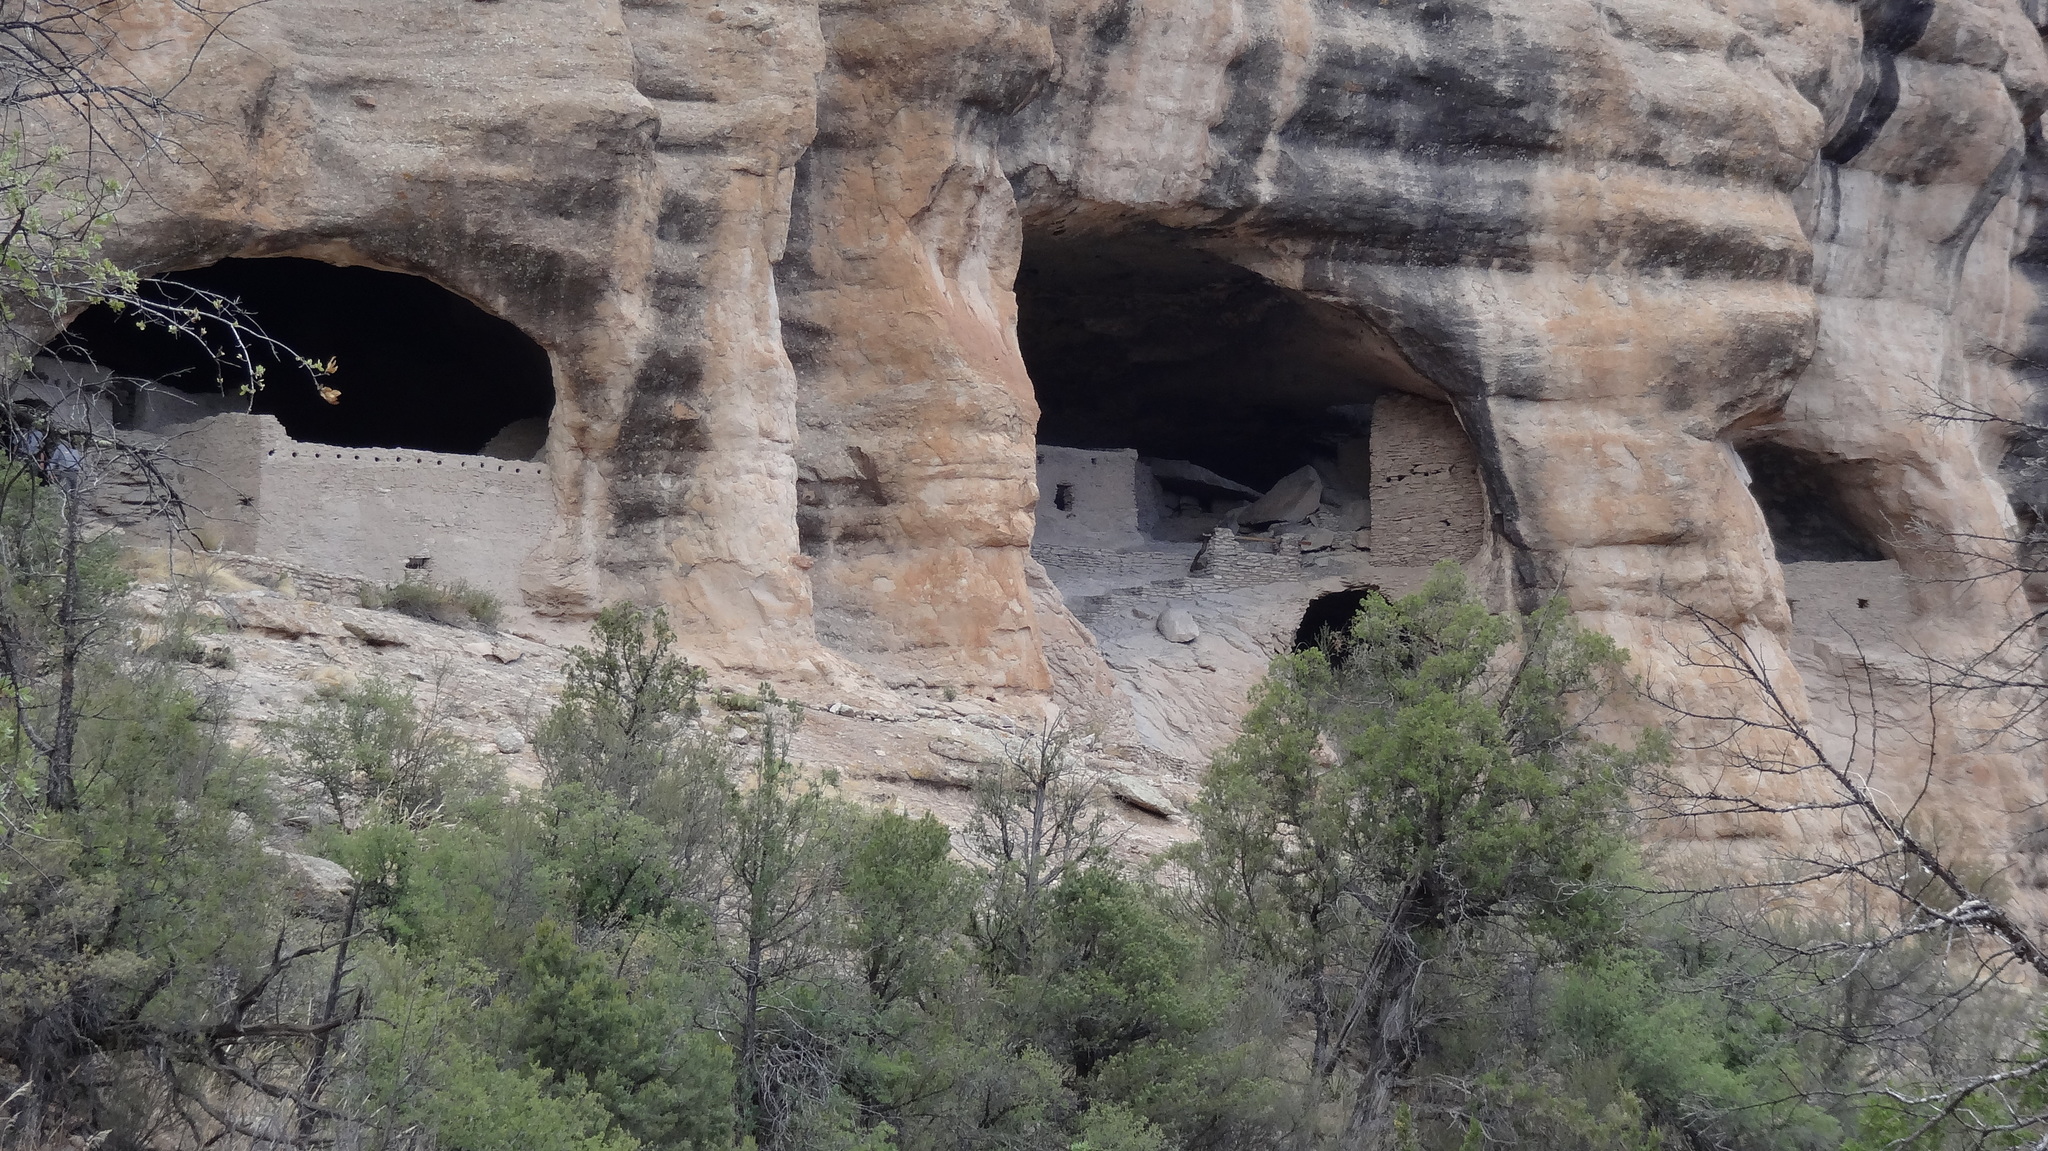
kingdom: Plantae
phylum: Tracheophyta
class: Pinopsida
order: Pinales
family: Cupressaceae
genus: Juniperus
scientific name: Juniperus deppeana
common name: Alligator juniper
